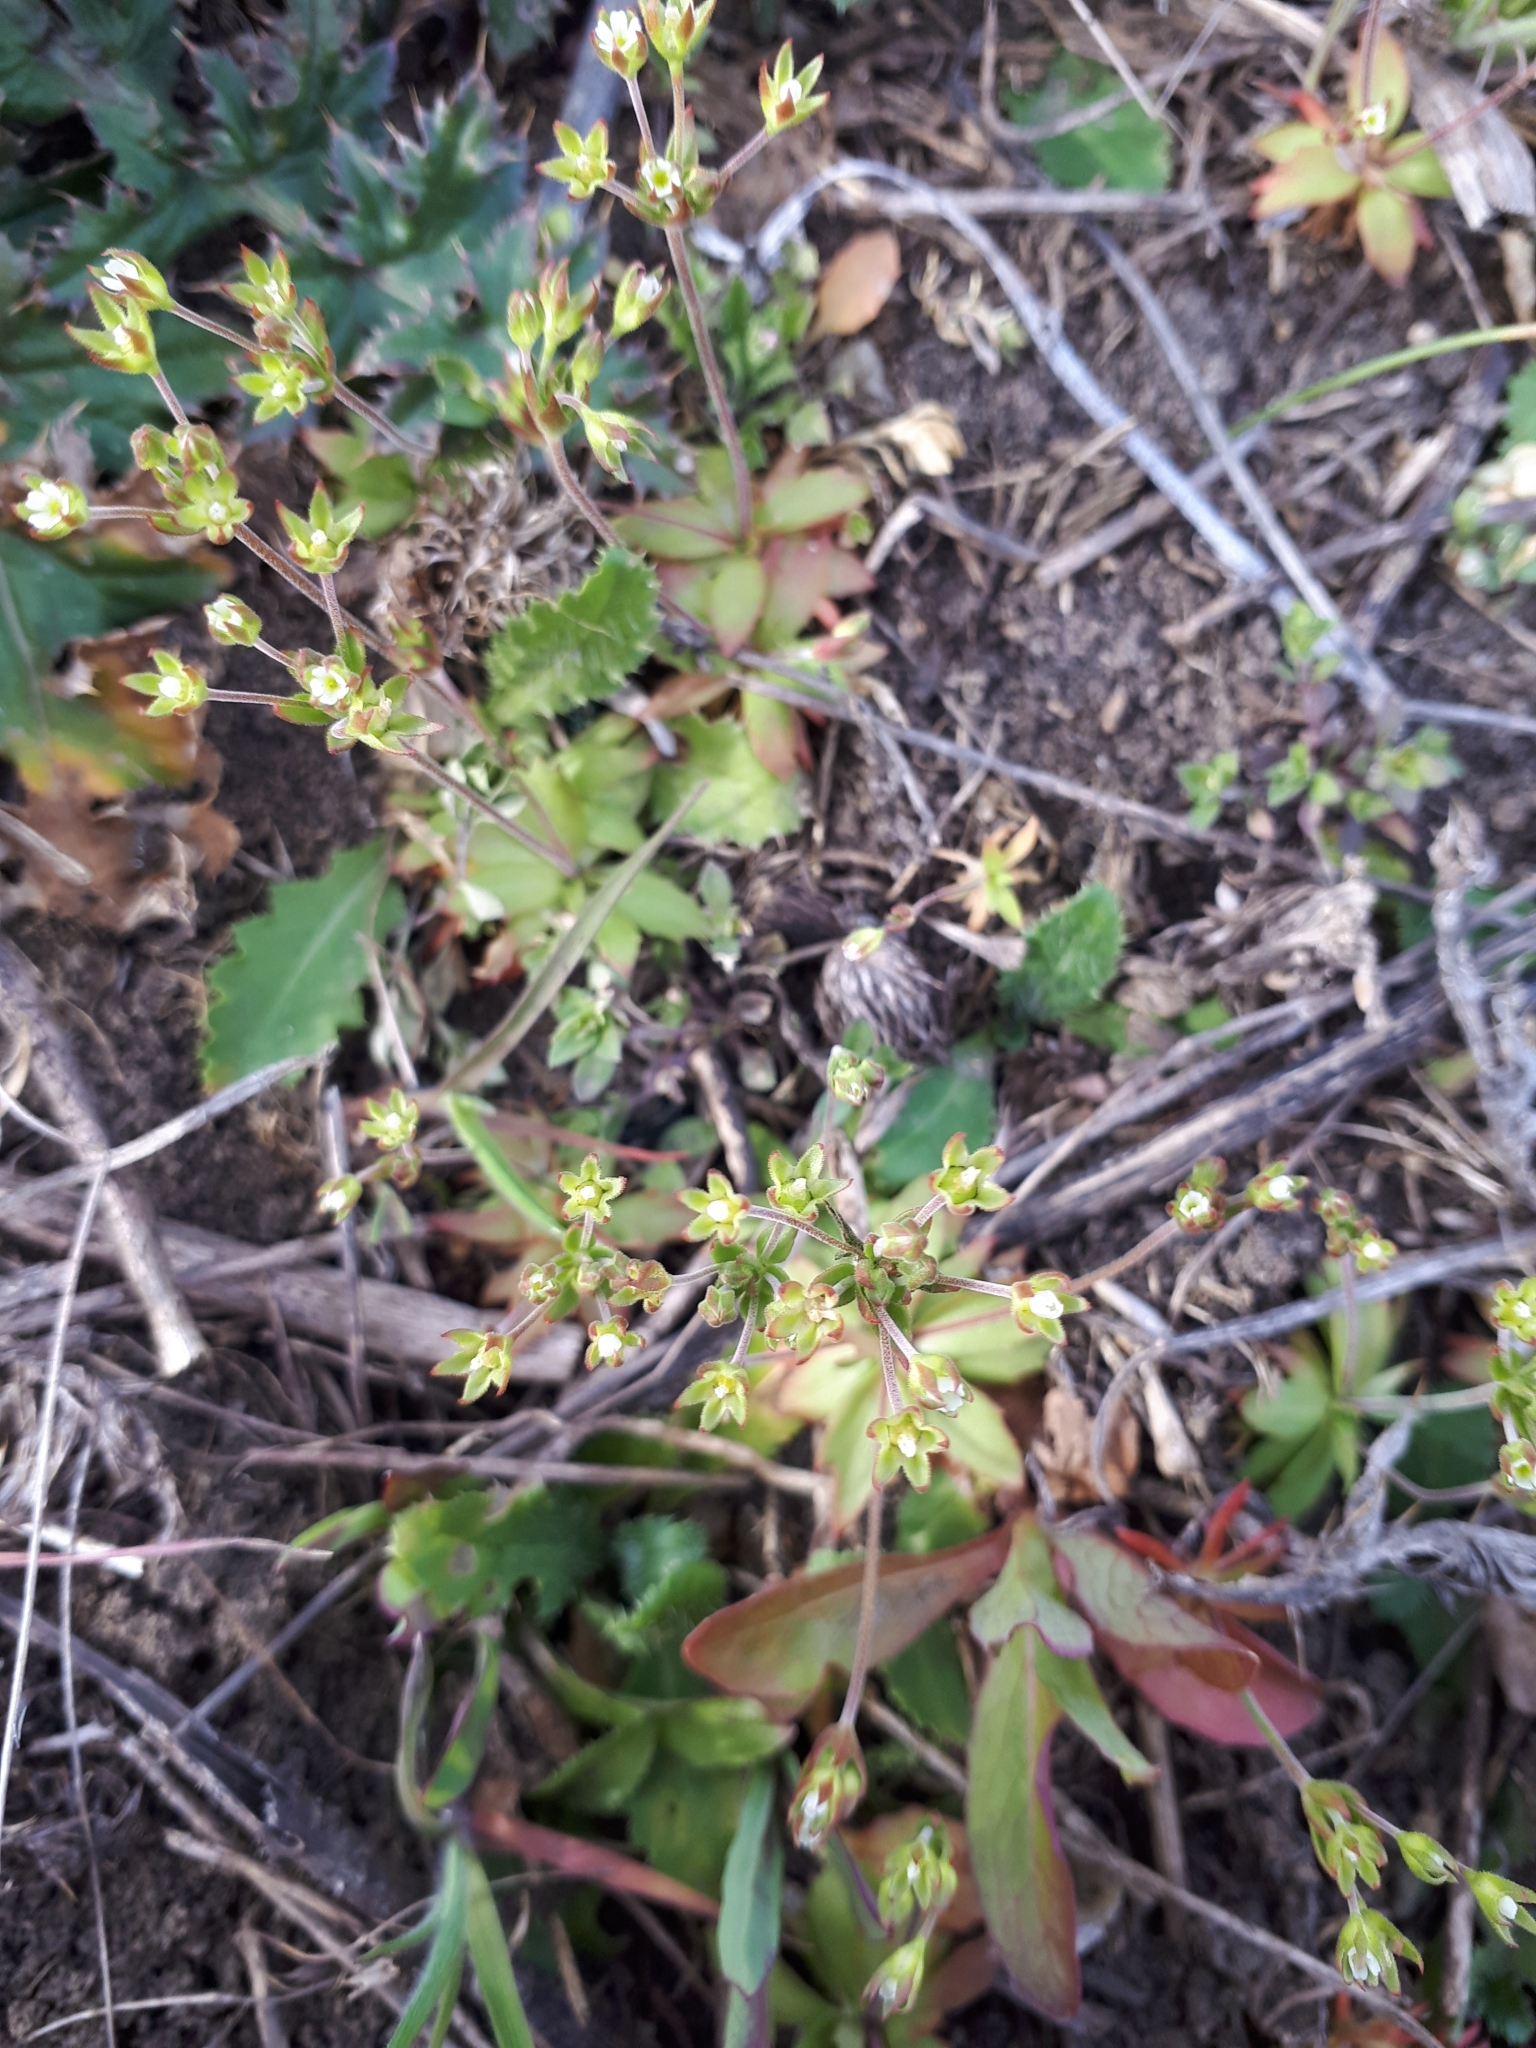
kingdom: Plantae
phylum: Tracheophyta
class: Magnoliopsida
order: Ericales
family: Primulaceae
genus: Androsace
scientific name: Androsace elongata
